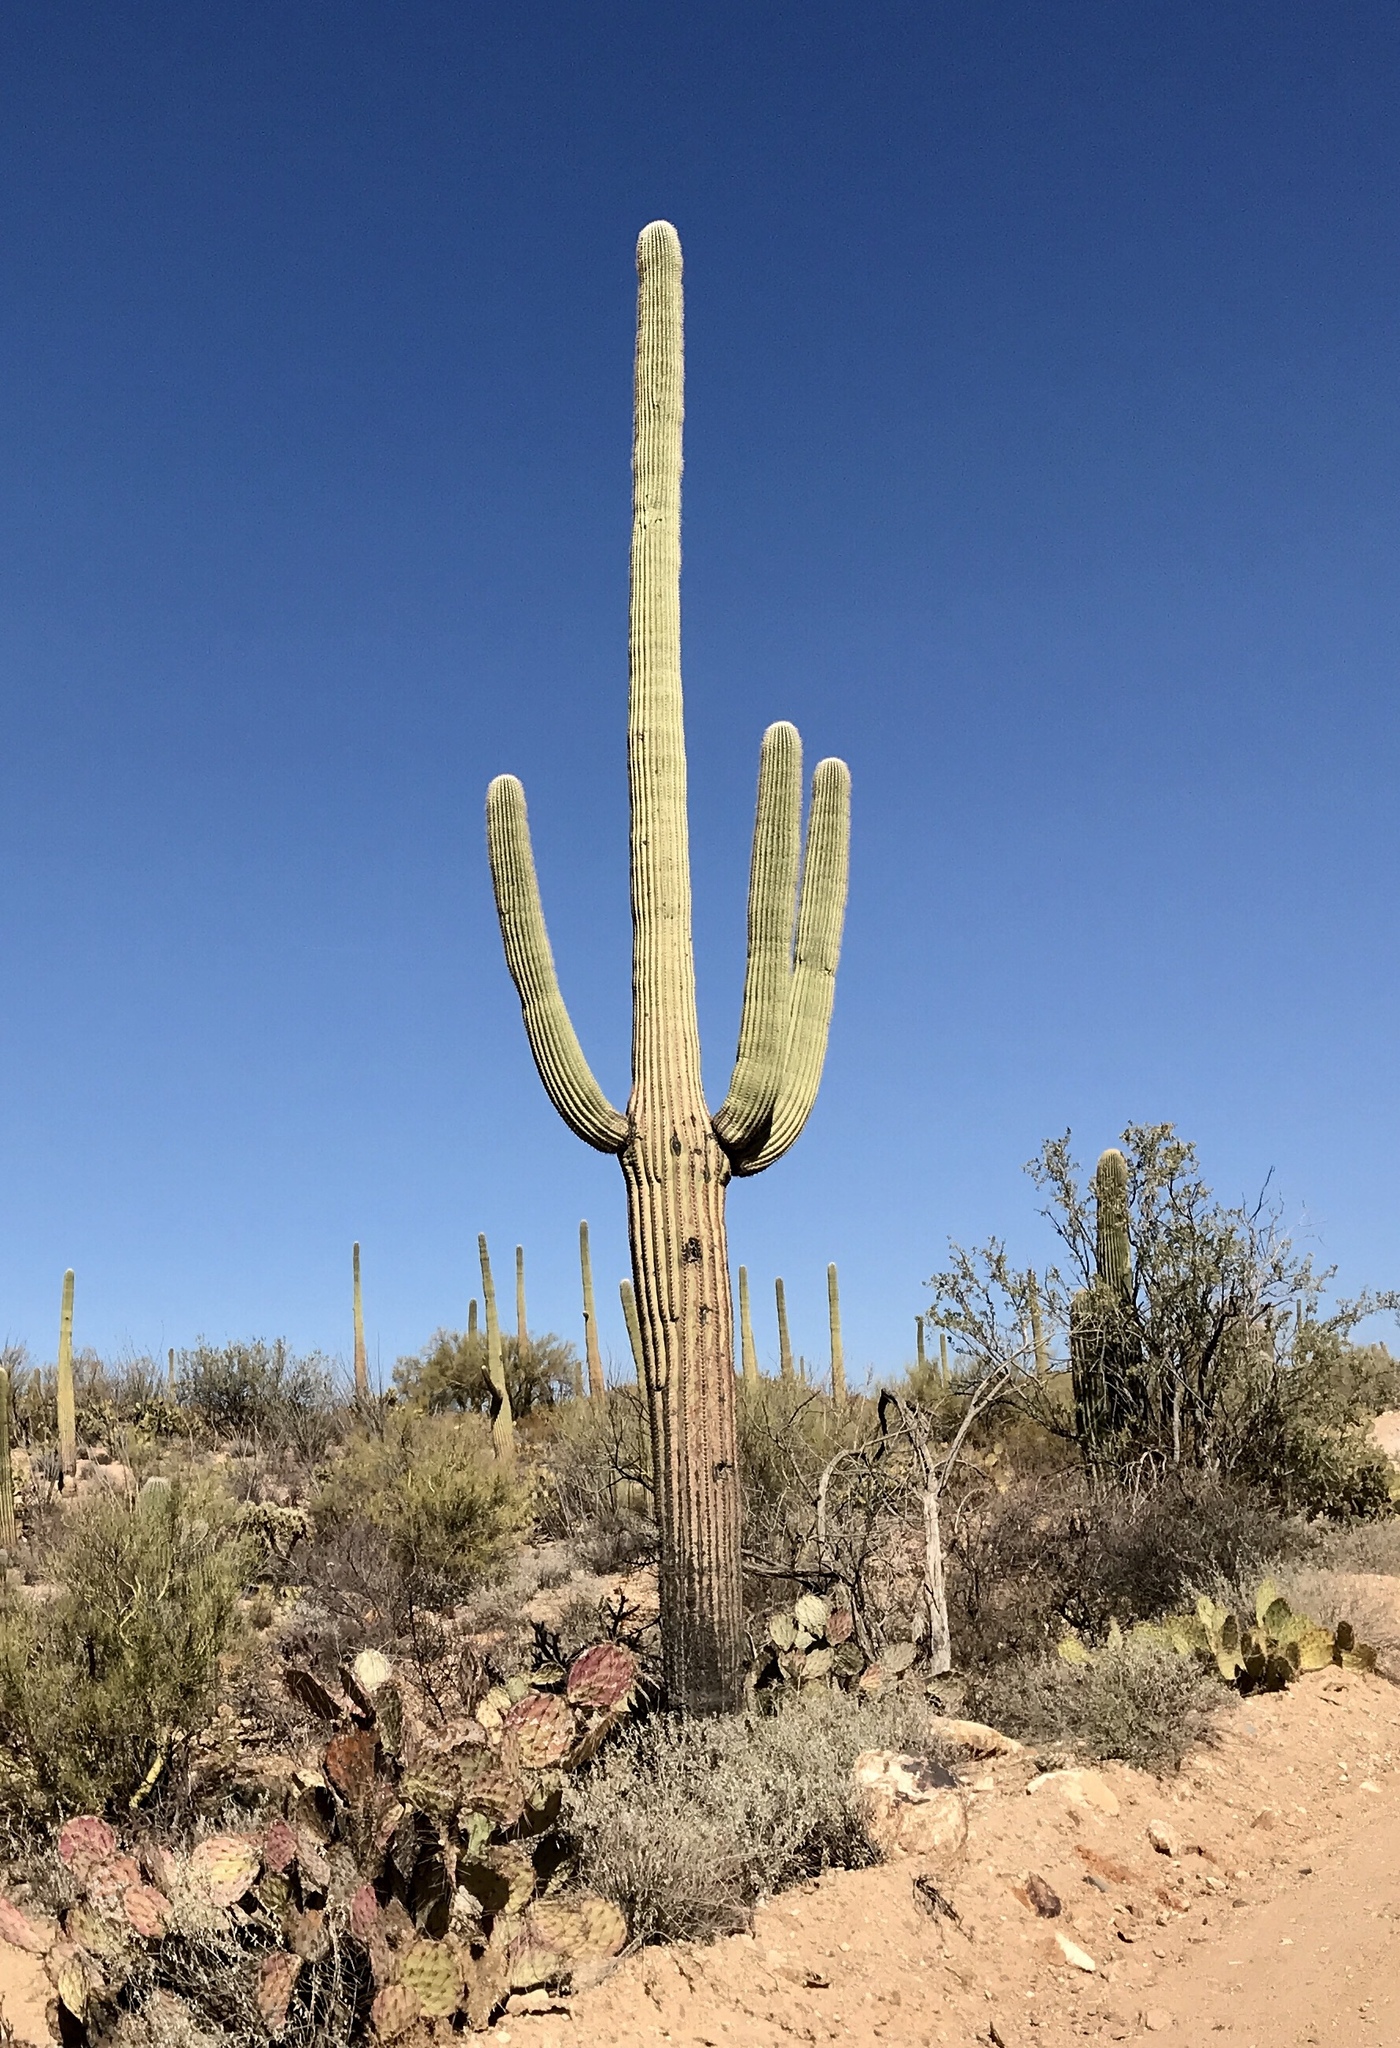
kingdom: Plantae
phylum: Tracheophyta
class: Magnoliopsida
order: Caryophyllales
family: Cactaceae
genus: Carnegiea
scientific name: Carnegiea gigantea
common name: Saguaro
